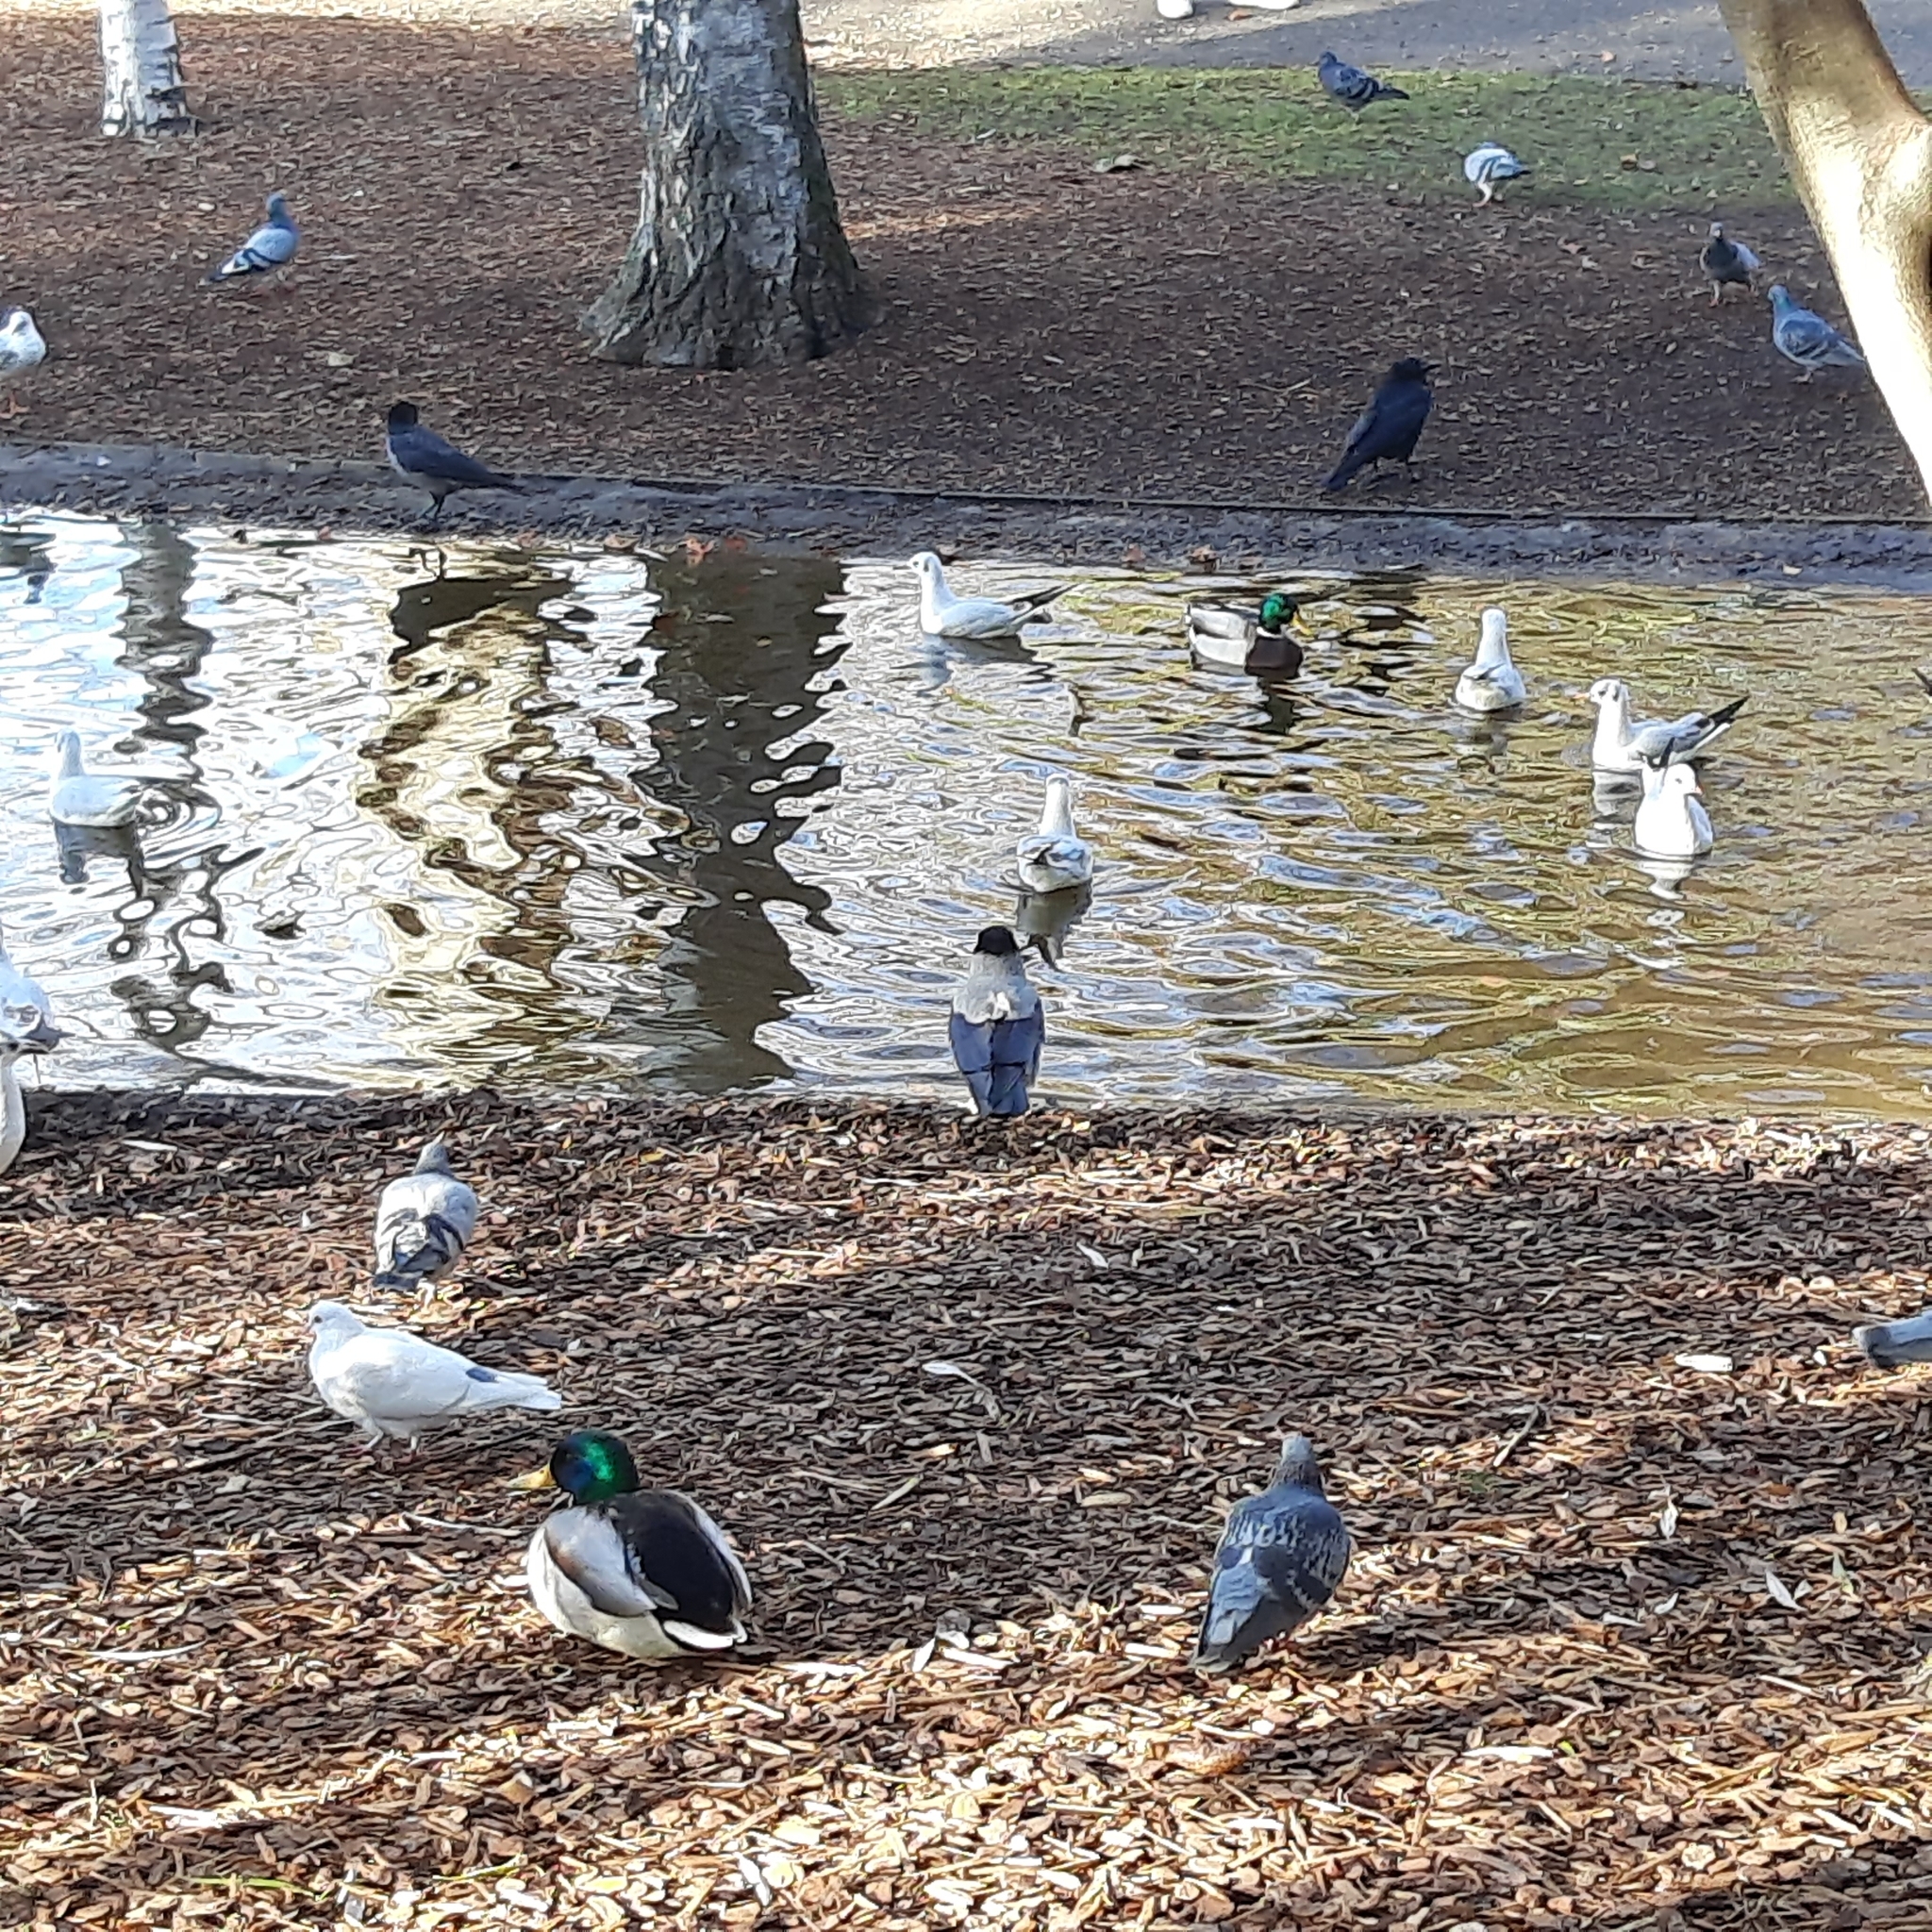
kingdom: Animalia
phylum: Chordata
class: Aves
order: Anseriformes
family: Anatidae
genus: Anas
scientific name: Anas platyrhynchos
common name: Mallard
